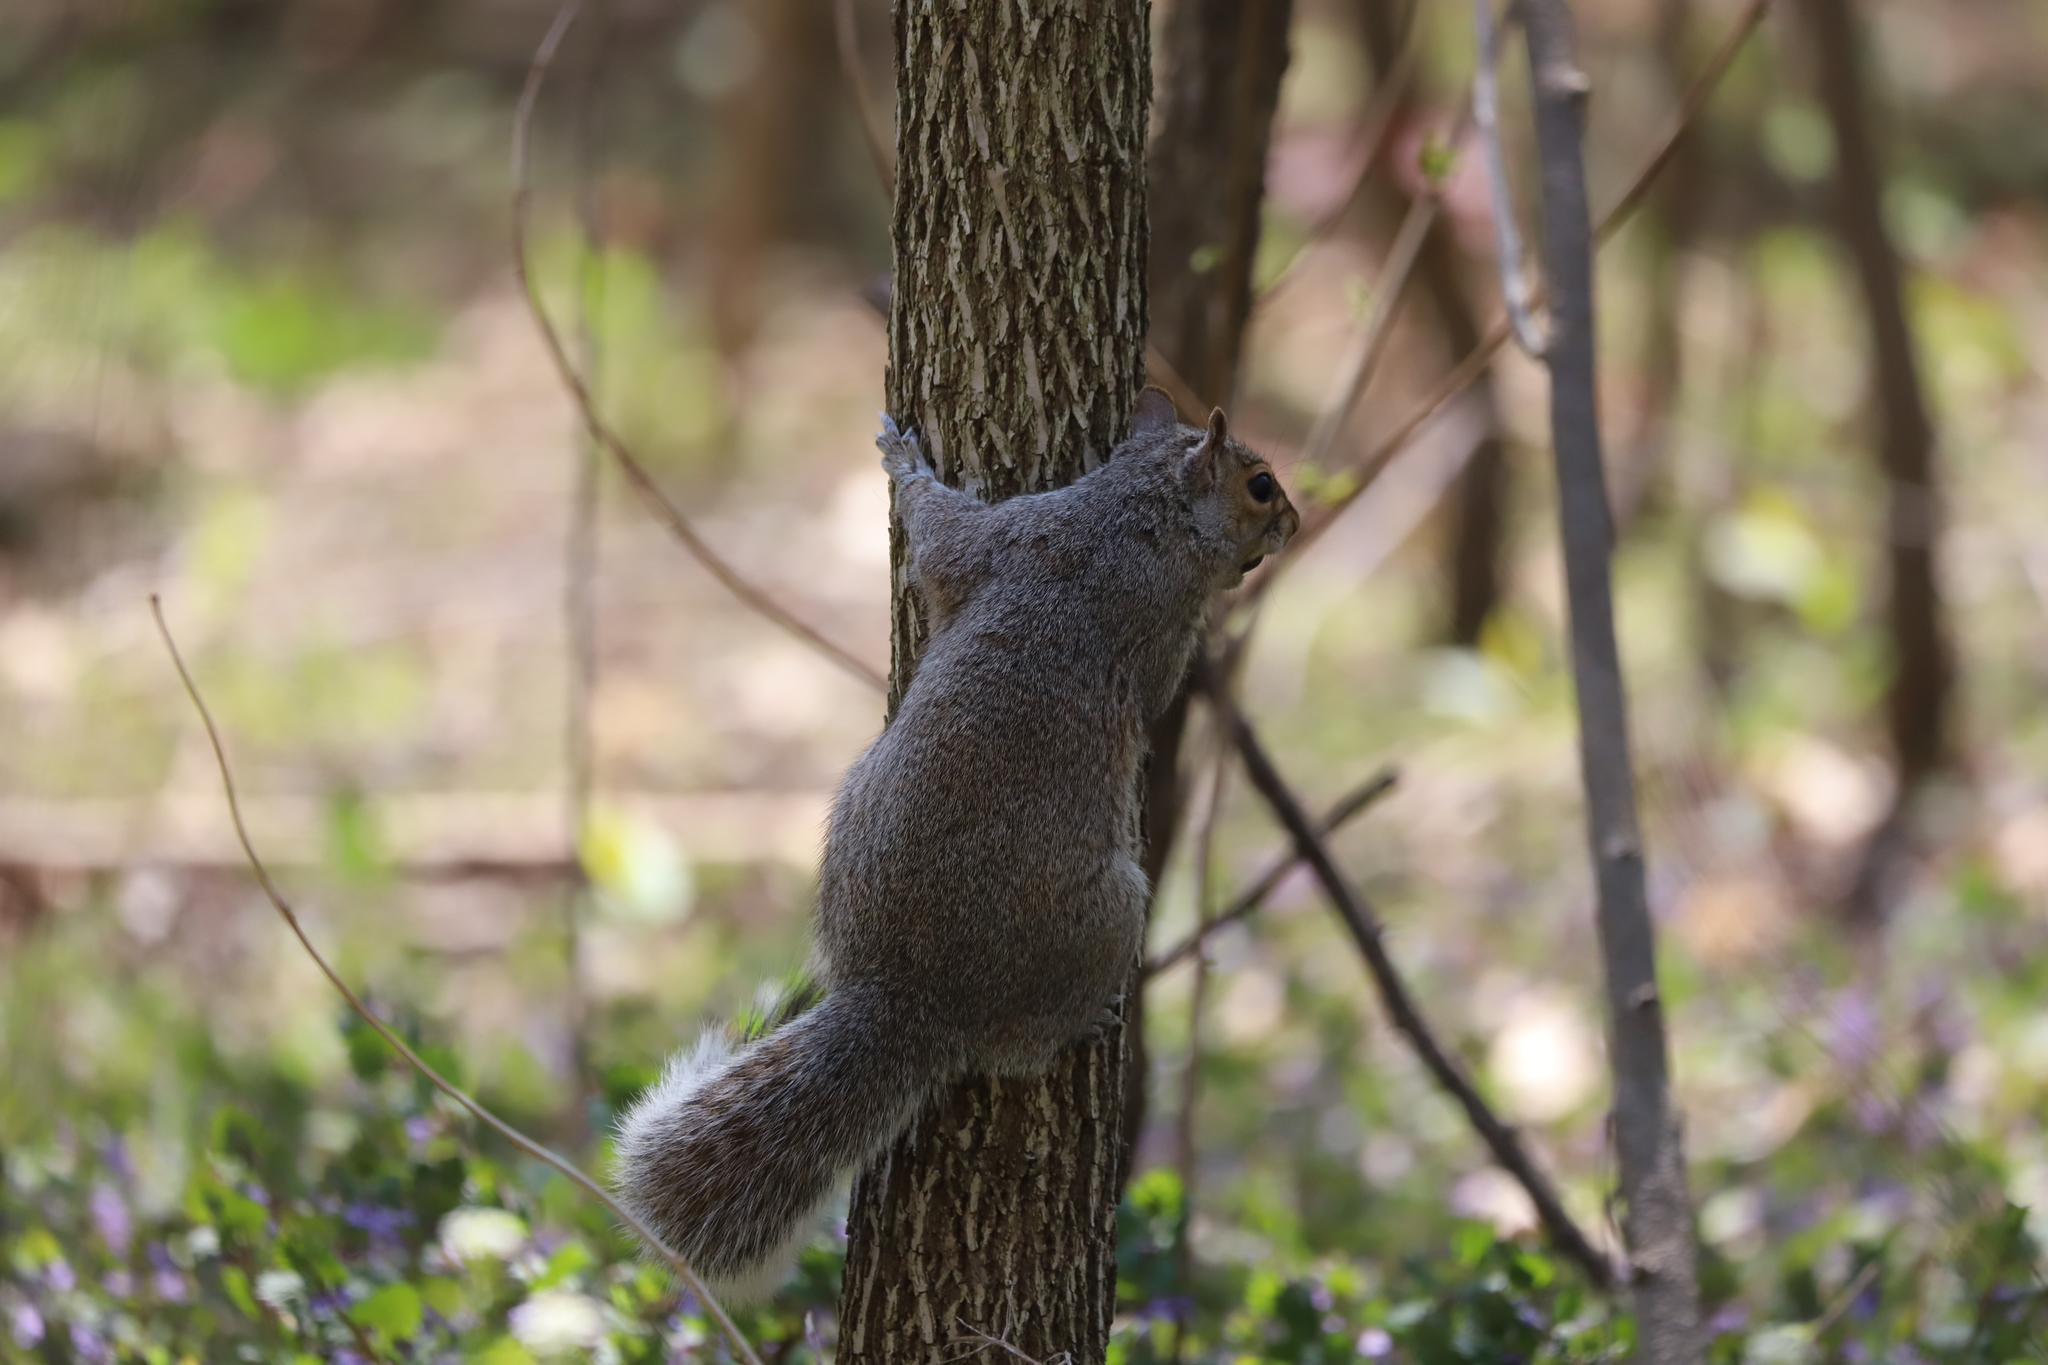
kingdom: Animalia
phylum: Chordata
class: Mammalia
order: Rodentia
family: Sciuridae
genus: Sciurus
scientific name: Sciurus carolinensis
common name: Eastern gray squirrel
